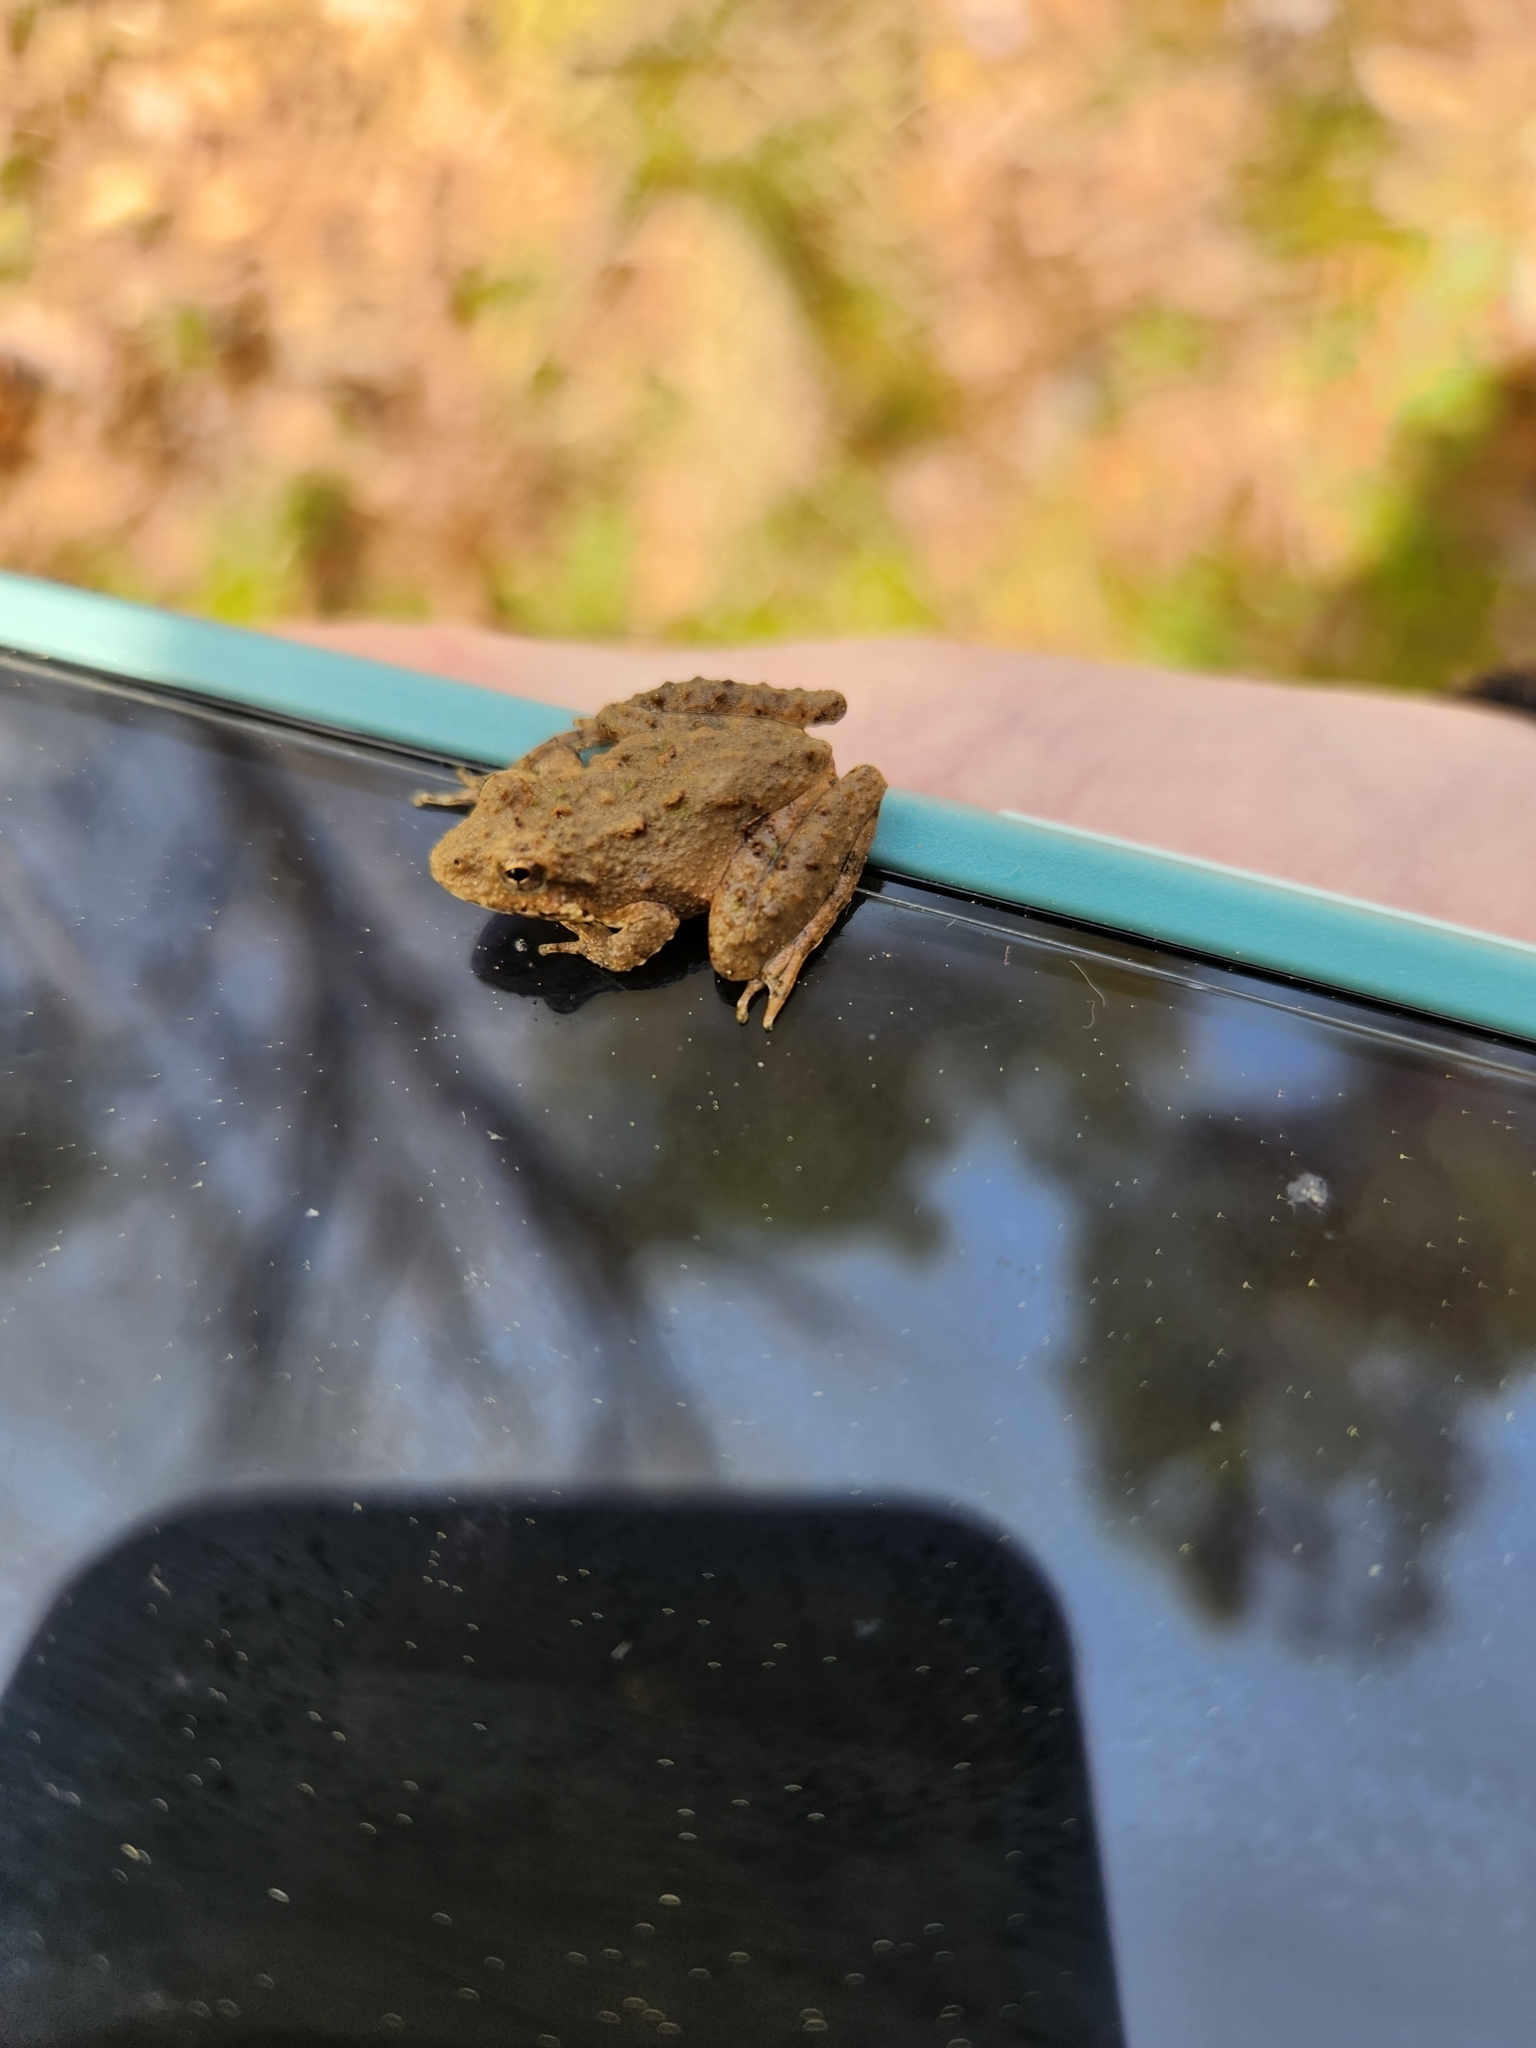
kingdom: Animalia
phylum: Chordata
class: Amphibia
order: Anura
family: Hylidae
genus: Acris
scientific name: Acris blanchardi
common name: Blanchard's cricket frog
